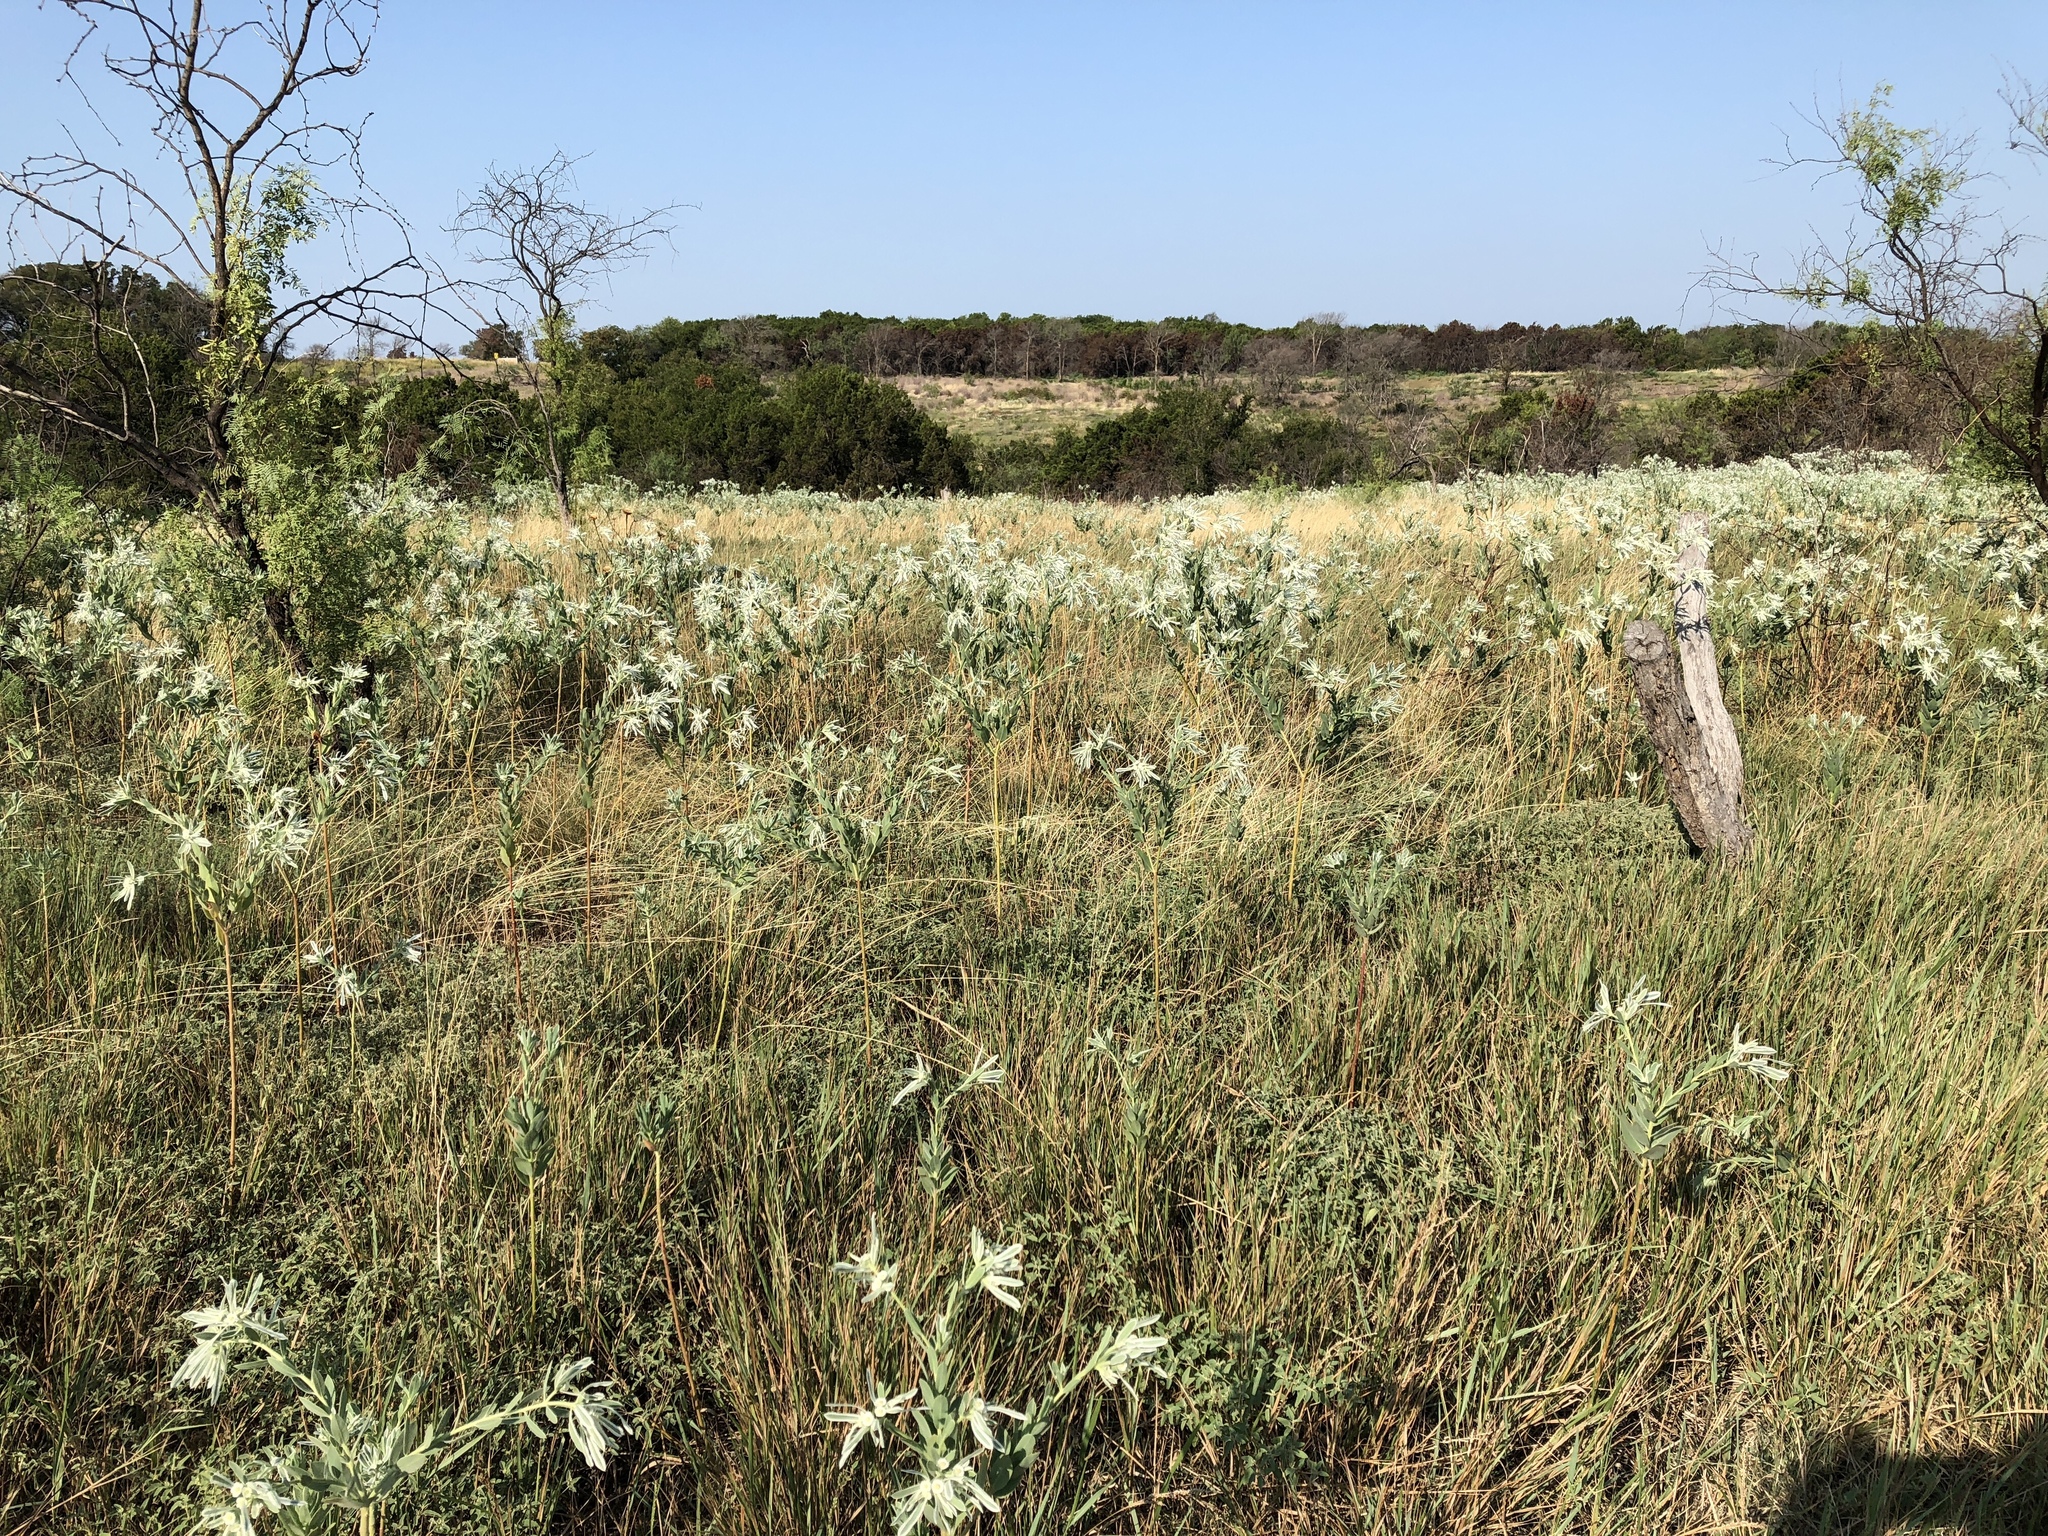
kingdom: Plantae
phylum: Tracheophyta
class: Magnoliopsida
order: Malpighiales
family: Euphorbiaceae
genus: Euphorbia
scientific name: Euphorbia bicolor
